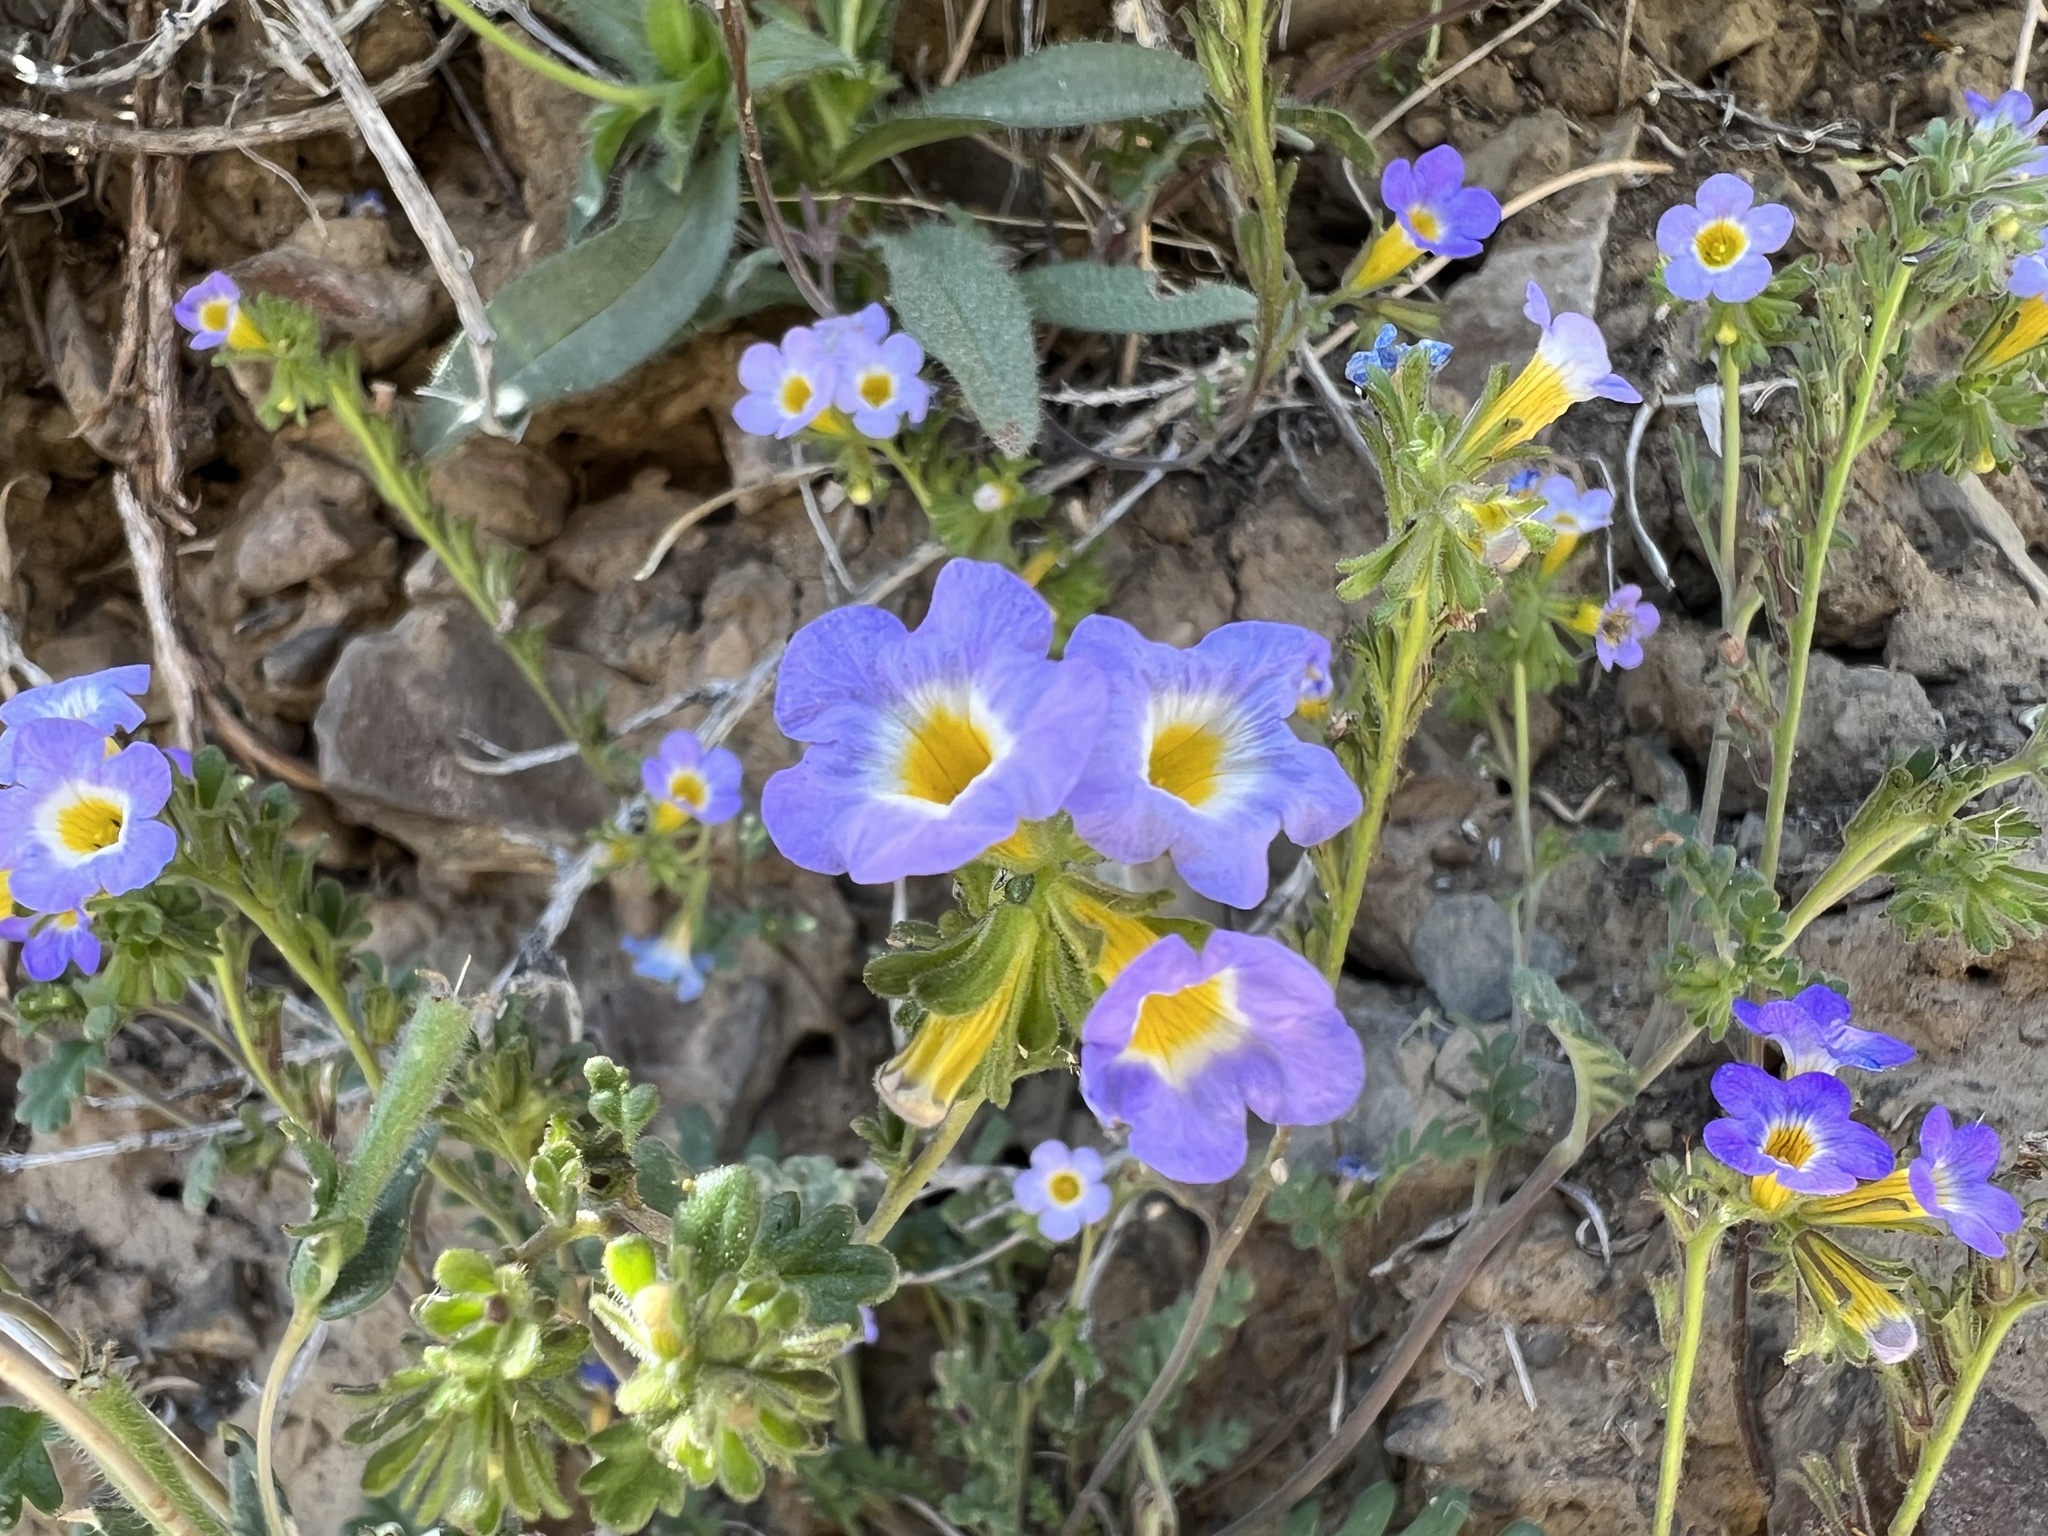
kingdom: Plantae
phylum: Tracheophyta
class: Magnoliopsida
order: Boraginales
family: Hydrophyllaceae
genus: Phacelia
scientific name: Phacelia fremontii
